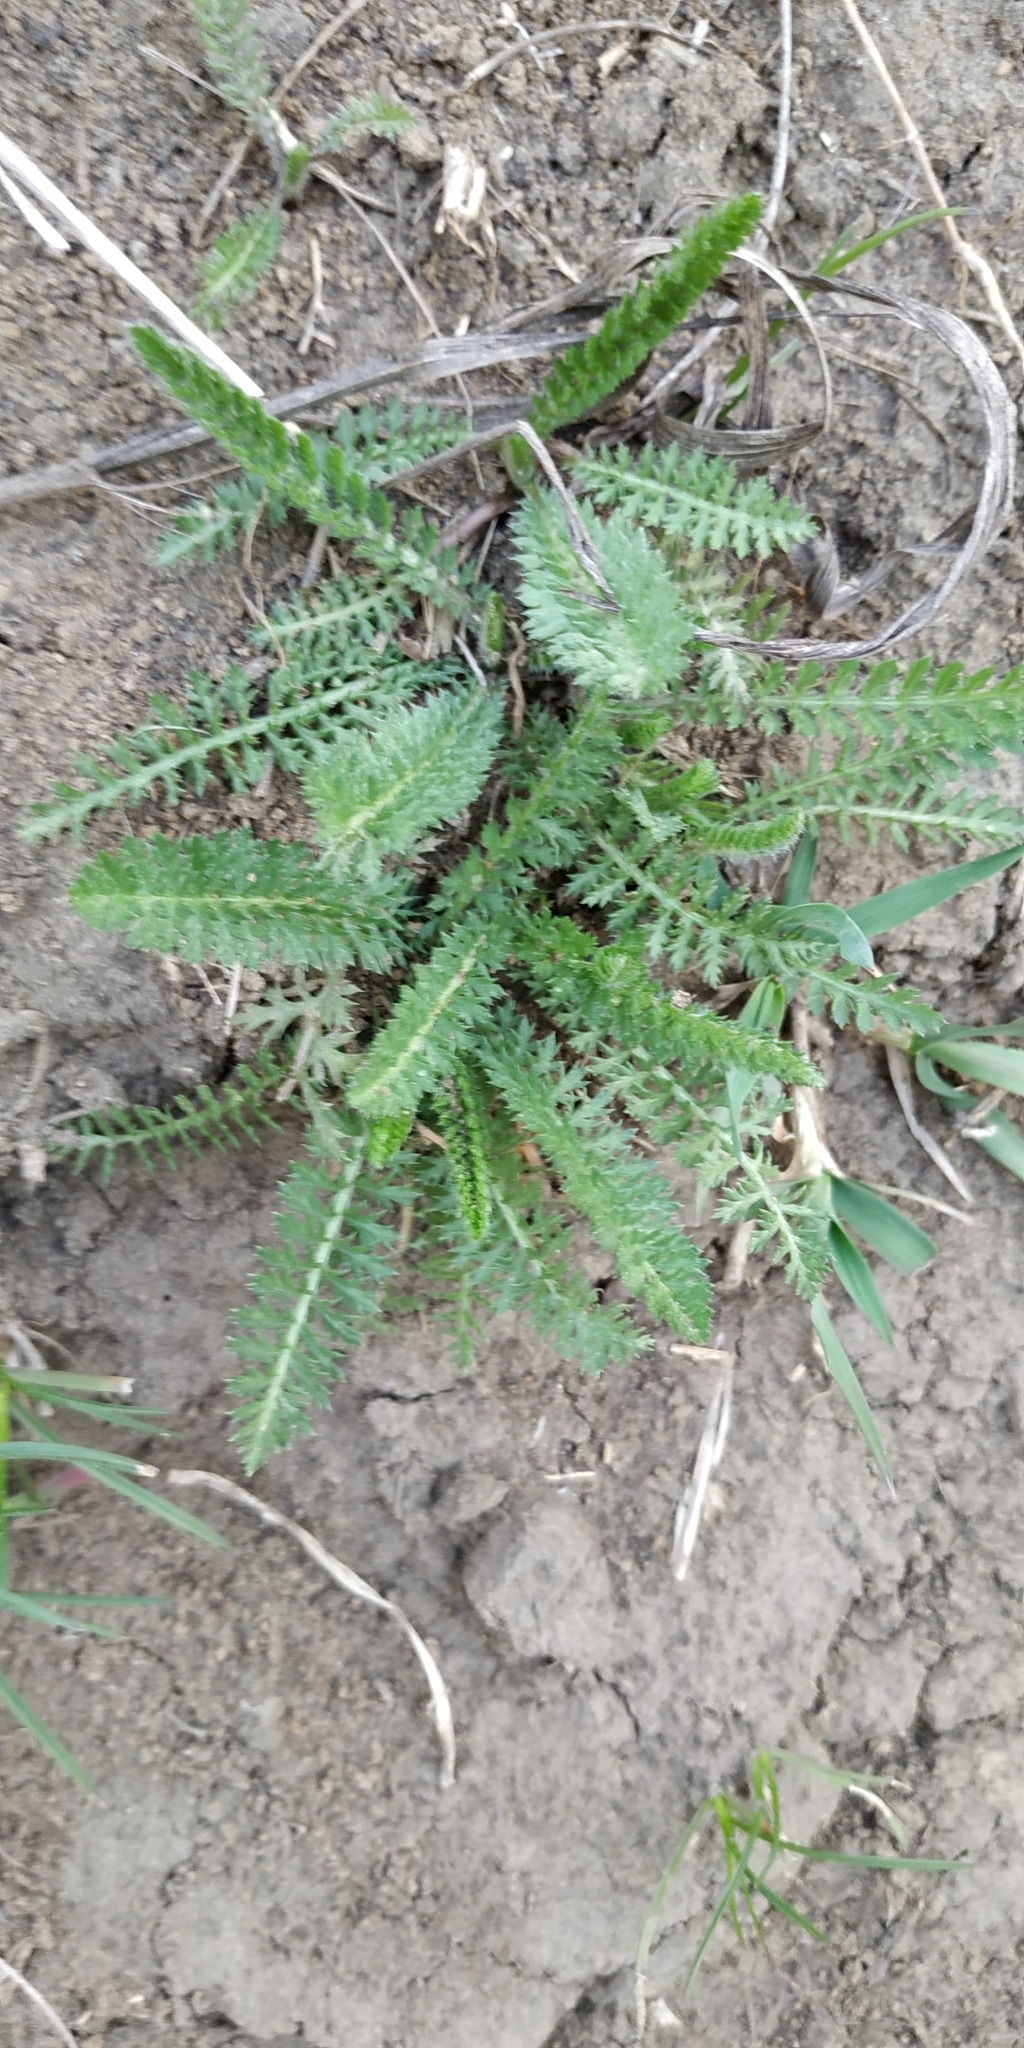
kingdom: Plantae
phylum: Tracheophyta
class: Magnoliopsida
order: Asterales
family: Asteraceae
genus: Achillea
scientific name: Achillea millefolium
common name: Yarrow
